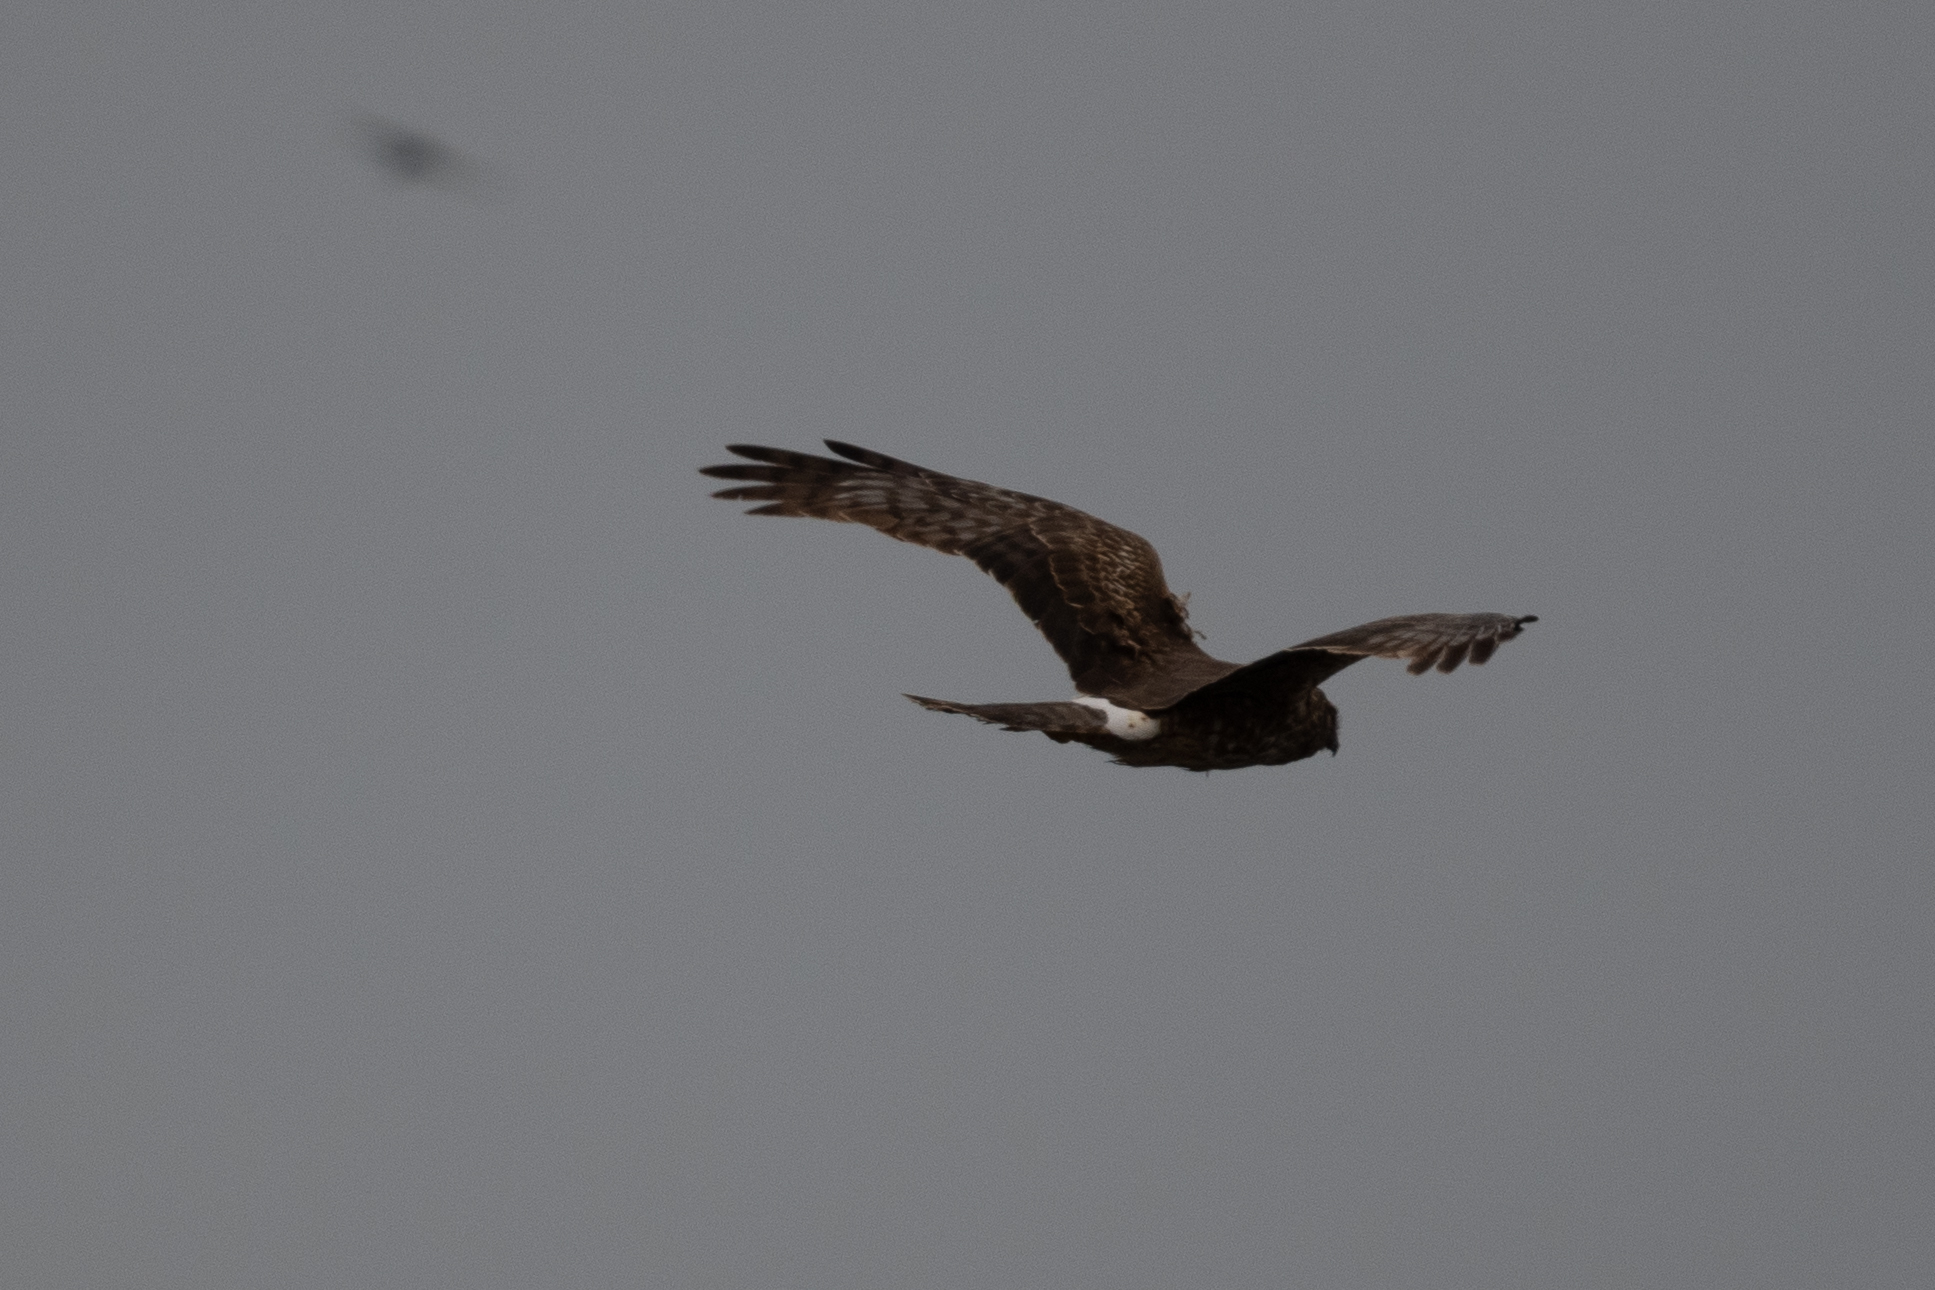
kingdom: Animalia
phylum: Chordata
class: Aves
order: Accipitriformes
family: Accipitridae
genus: Circus
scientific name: Circus cyaneus
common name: Hen harrier
